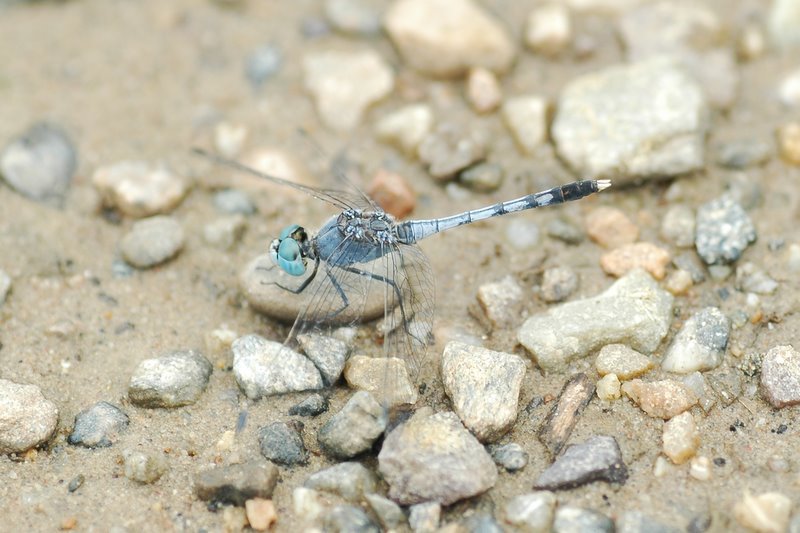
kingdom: Animalia
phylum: Arthropoda
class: Insecta
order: Odonata
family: Libellulidae
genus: Diplacodes
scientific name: Diplacodes trivialis
